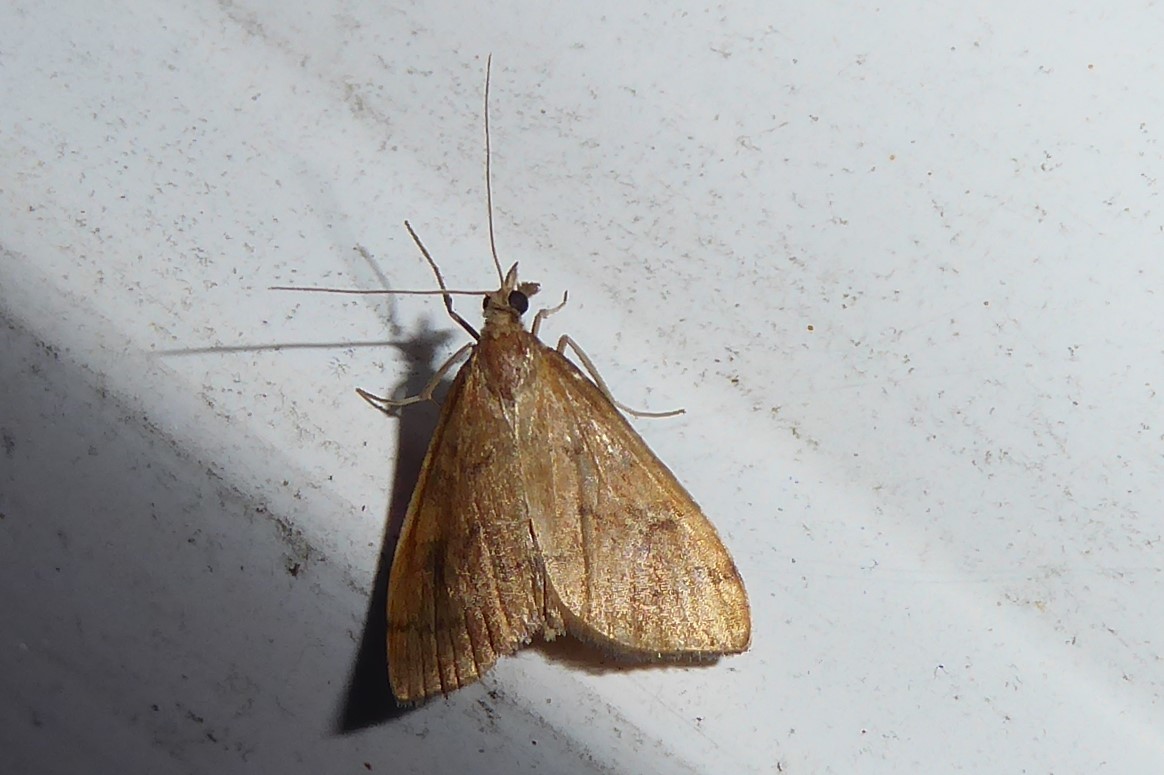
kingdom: Animalia
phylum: Arthropoda
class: Insecta
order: Lepidoptera
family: Crambidae
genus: Udea
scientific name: Udea Mnesictena flavidalis
